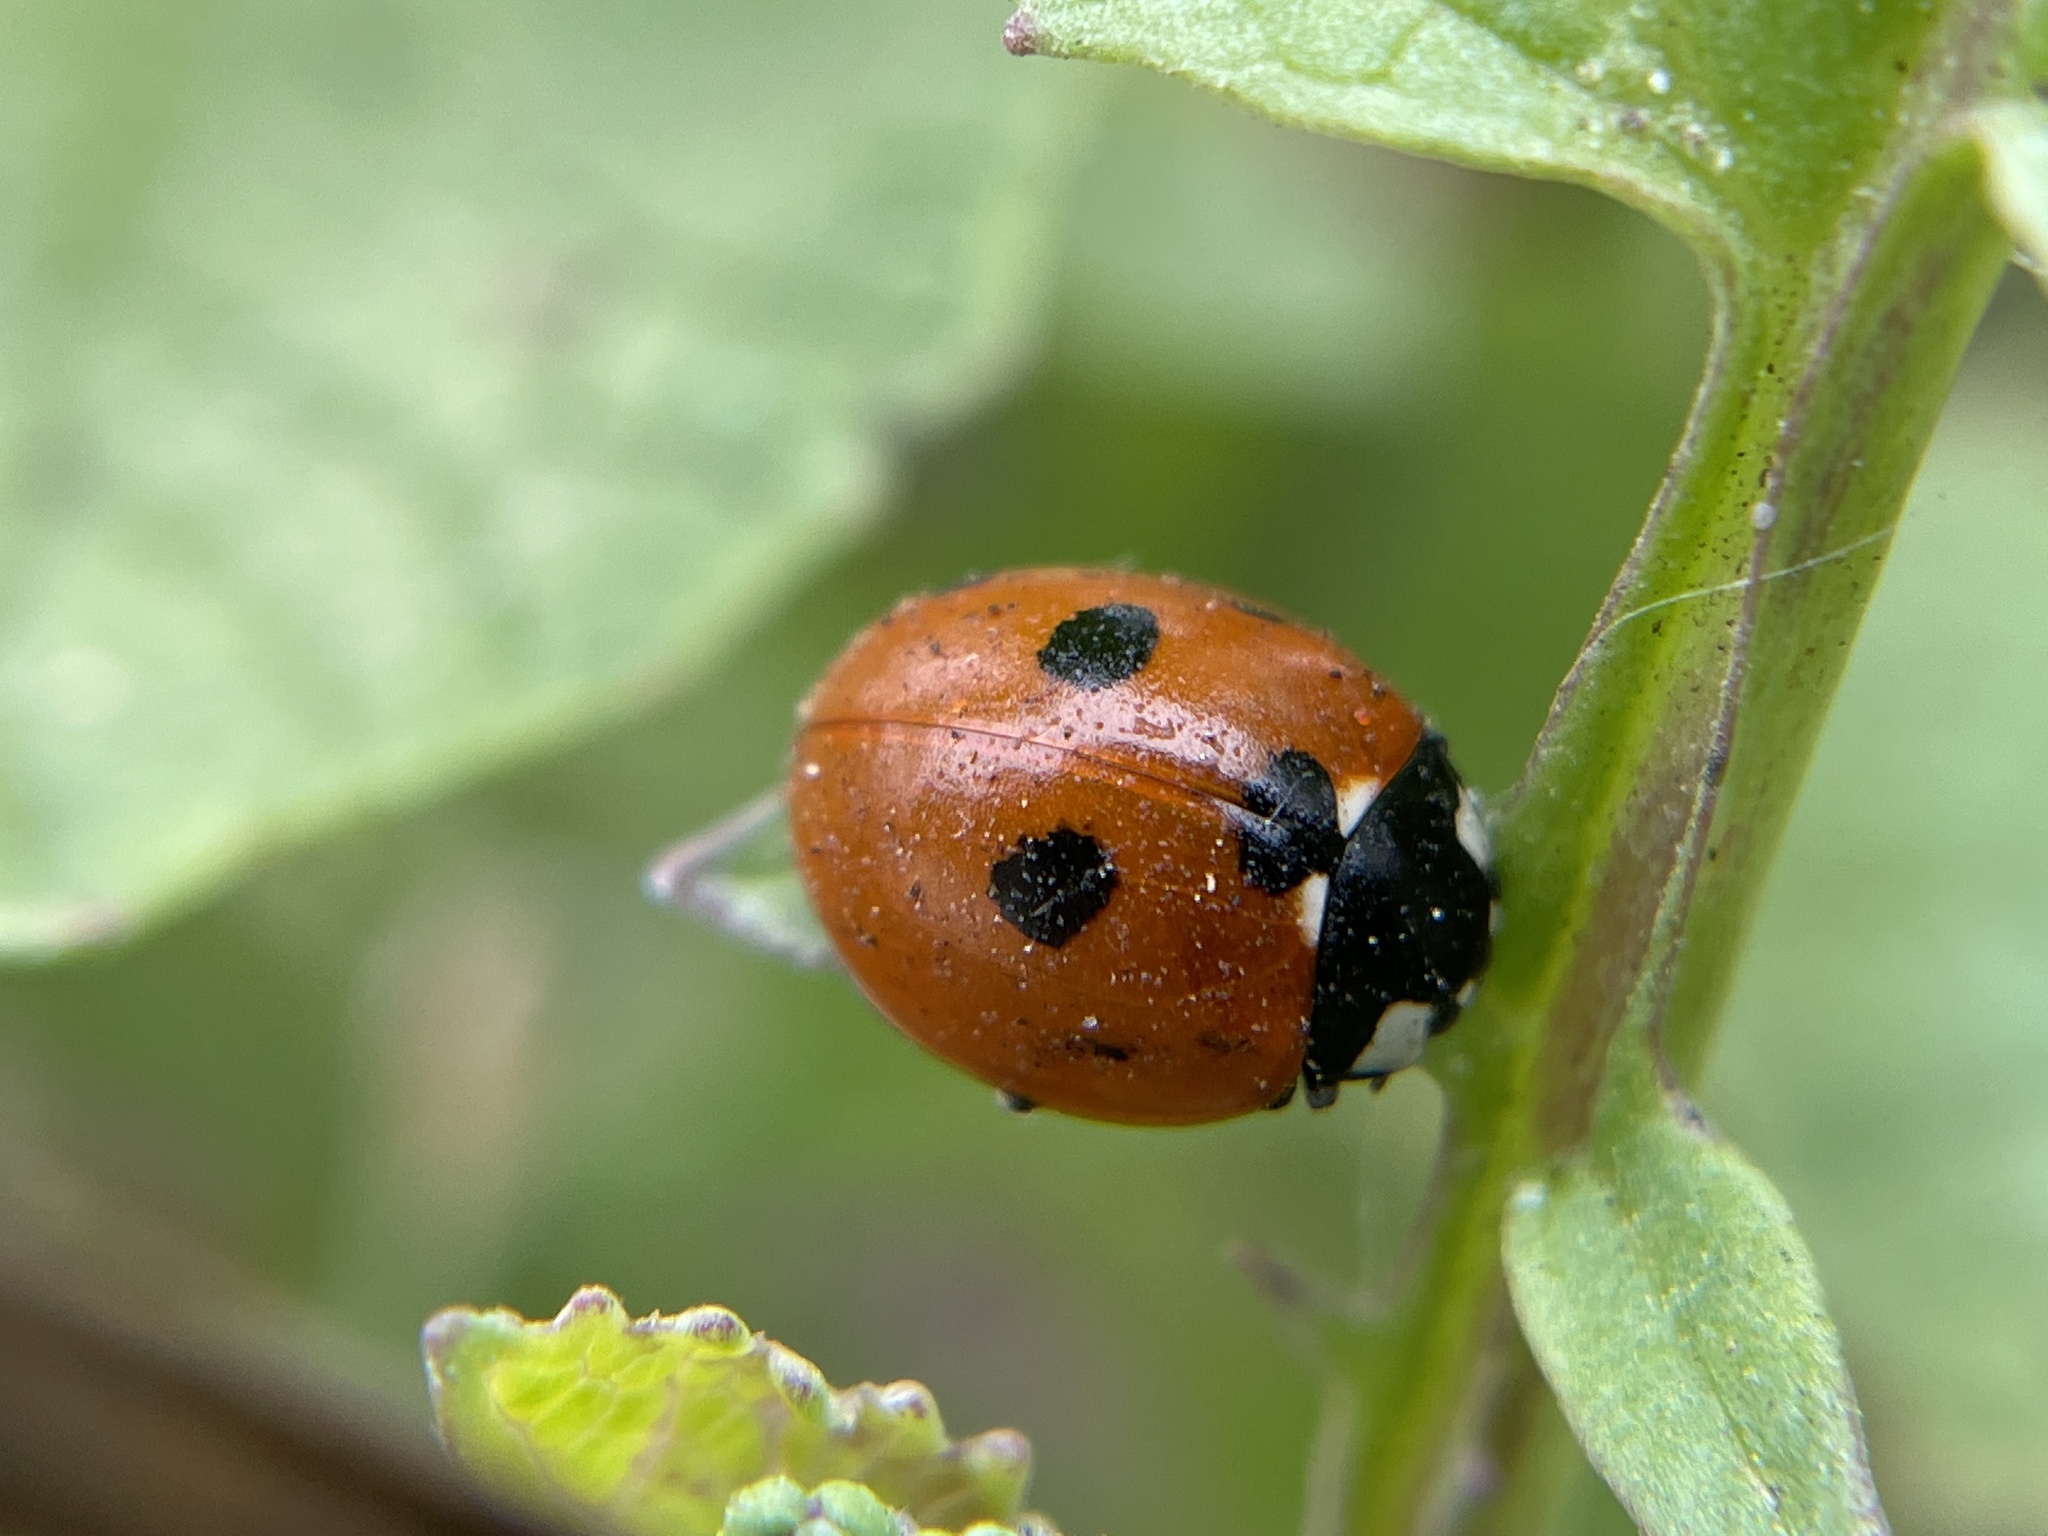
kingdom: Animalia
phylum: Arthropoda
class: Insecta
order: Coleoptera
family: Coccinellidae
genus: Coccinella
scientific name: Coccinella septempunctata
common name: Sevenspotted lady beetle
